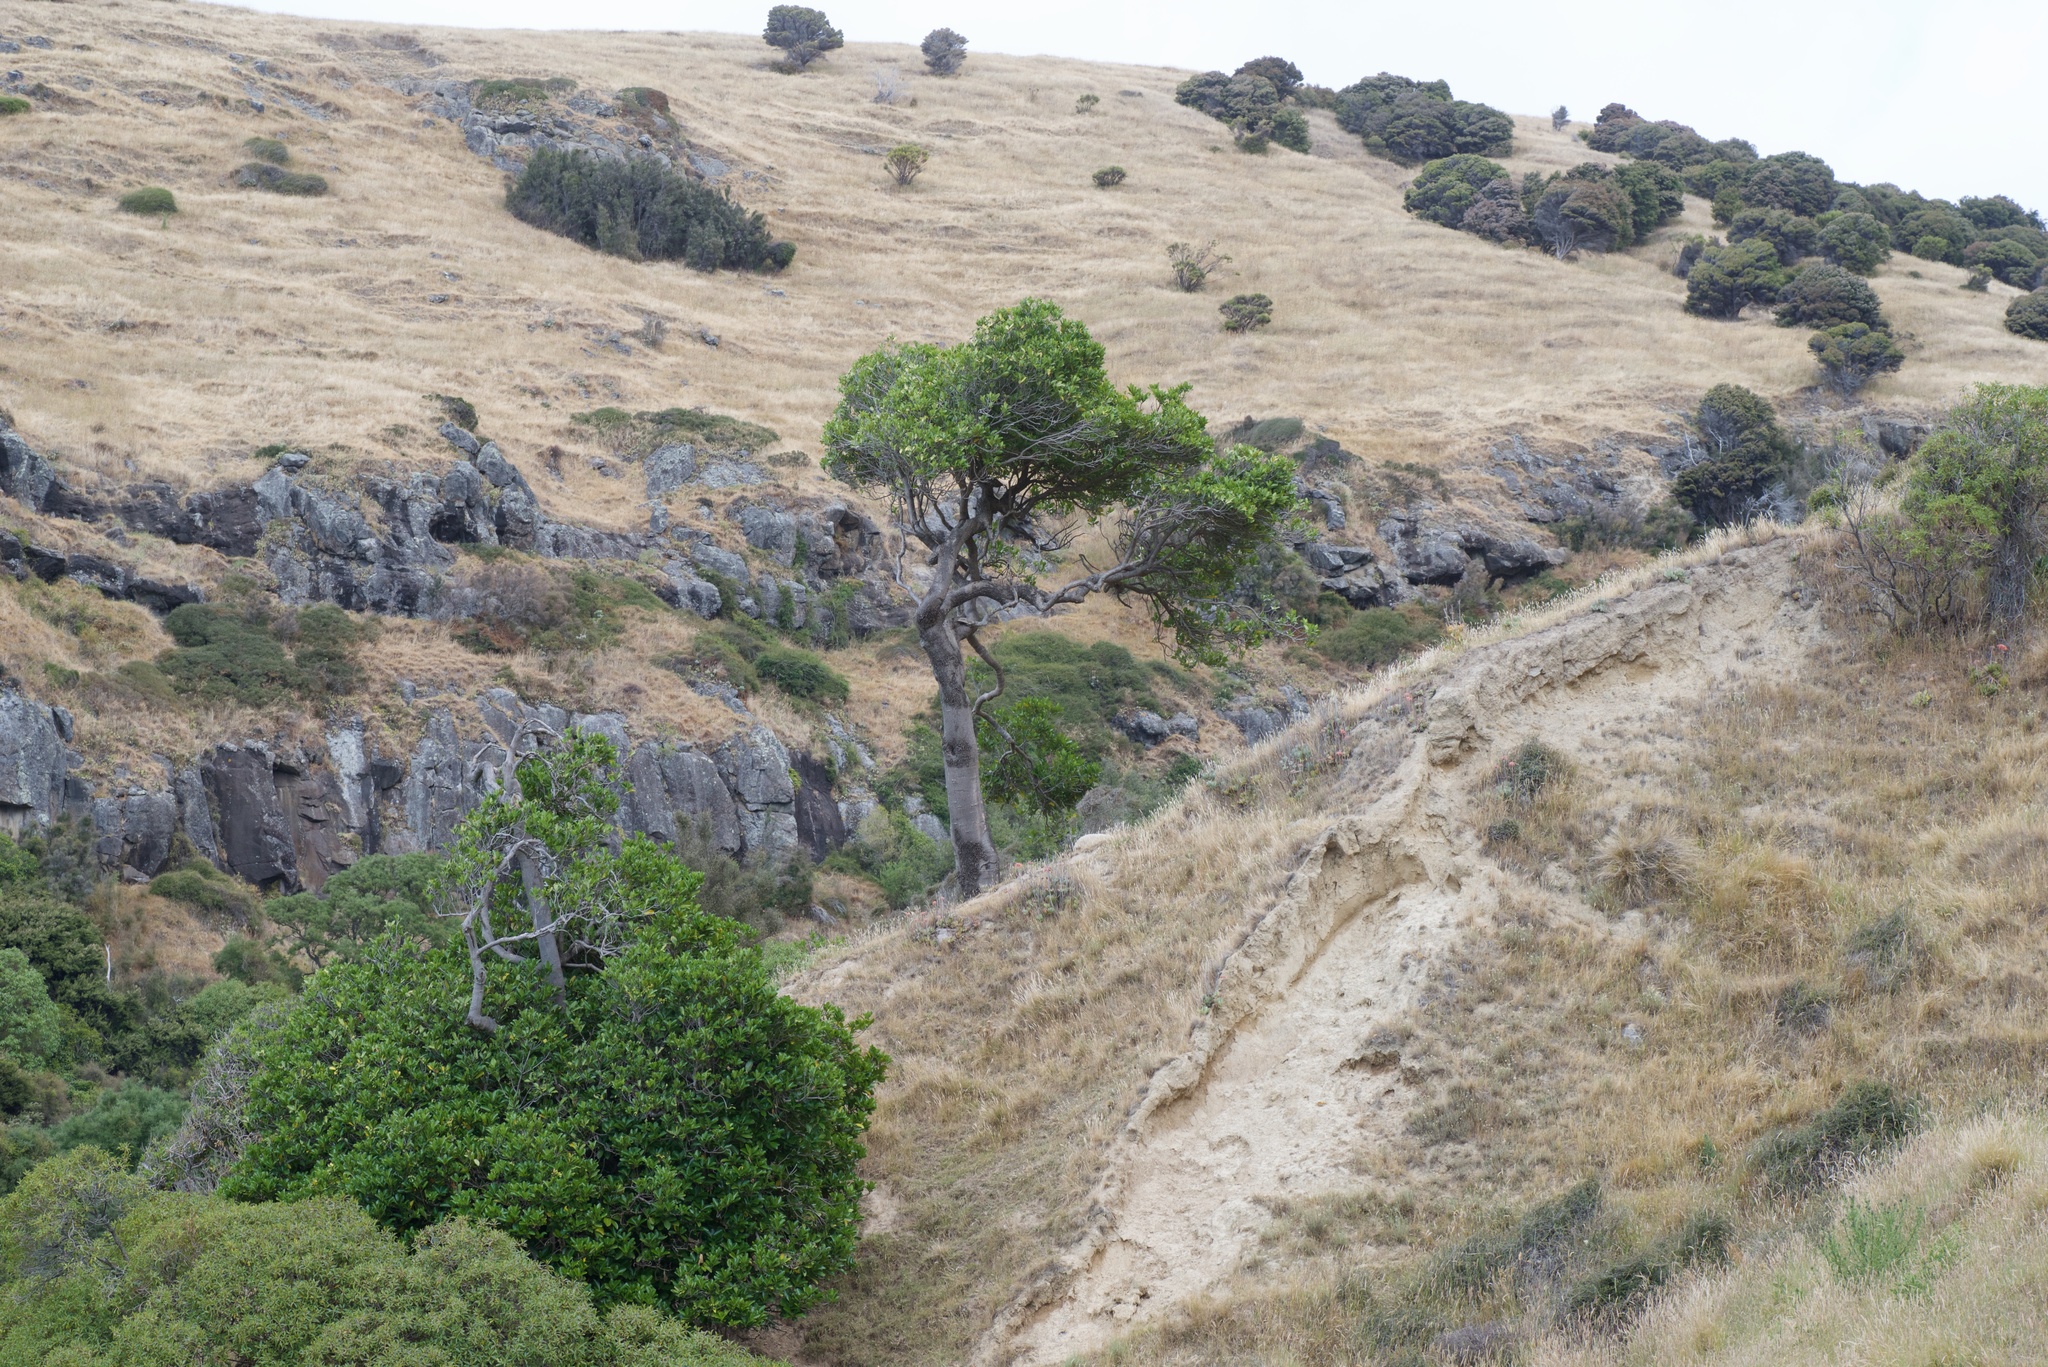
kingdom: Plantae
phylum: Tracheophyta
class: Magnoliopsida
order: Cucurbitales
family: Corynocarpaceae
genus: Corynocarpus
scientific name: Corynocarpus laevigatus
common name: New zealand laurel
